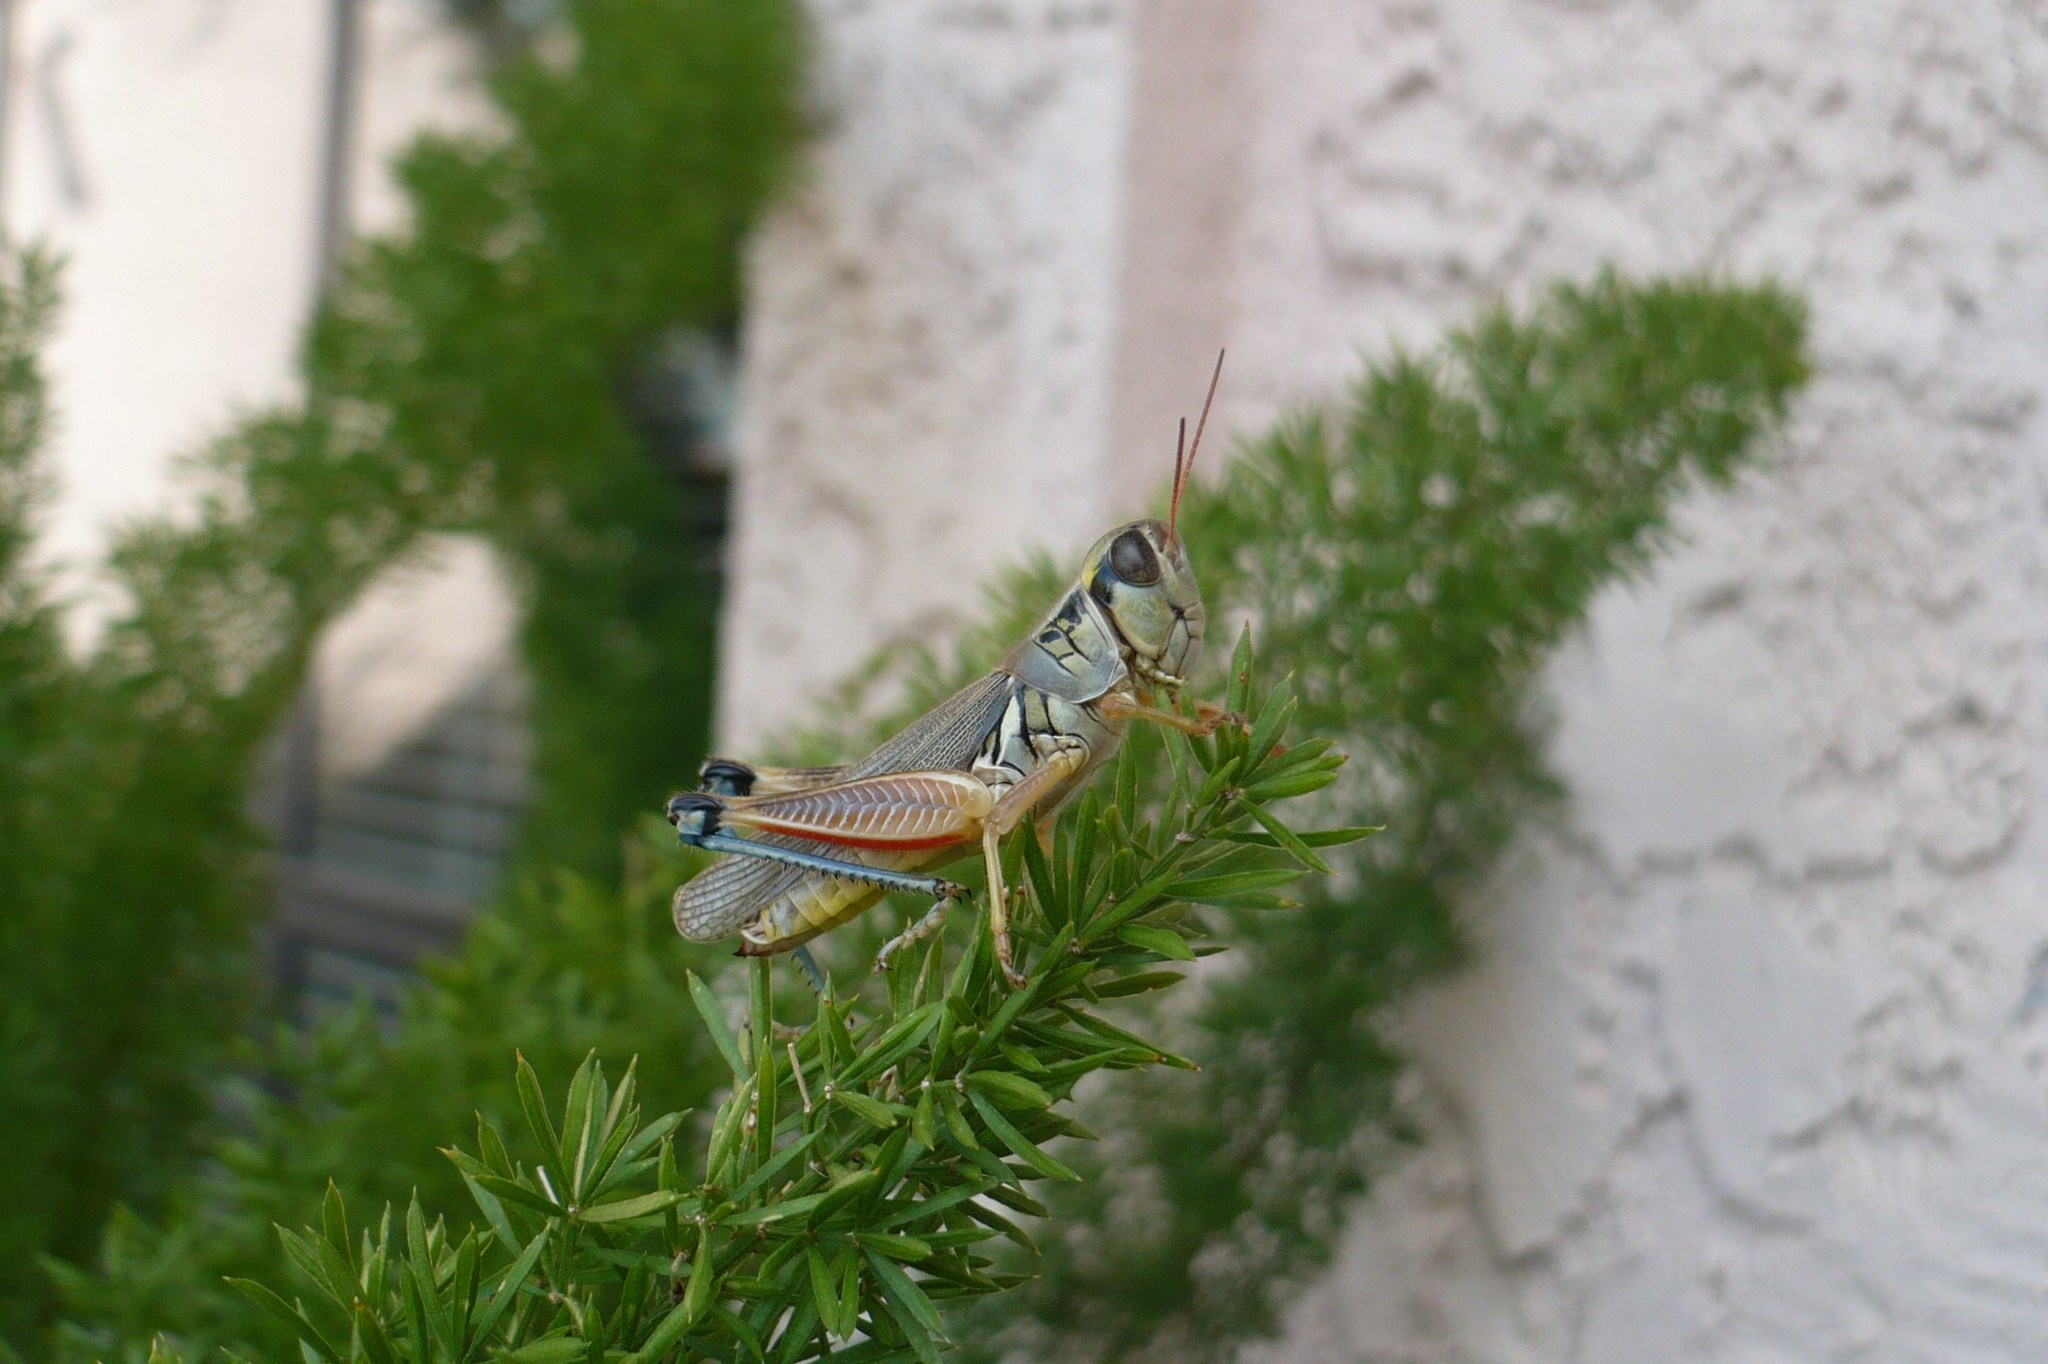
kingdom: Animalia
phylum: Arthropoda
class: Insecta
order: Orthoptera
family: Acrididae
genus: Phoetaliotes
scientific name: Phoetaliotes nebrascensis
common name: Large-headed grasshopper
